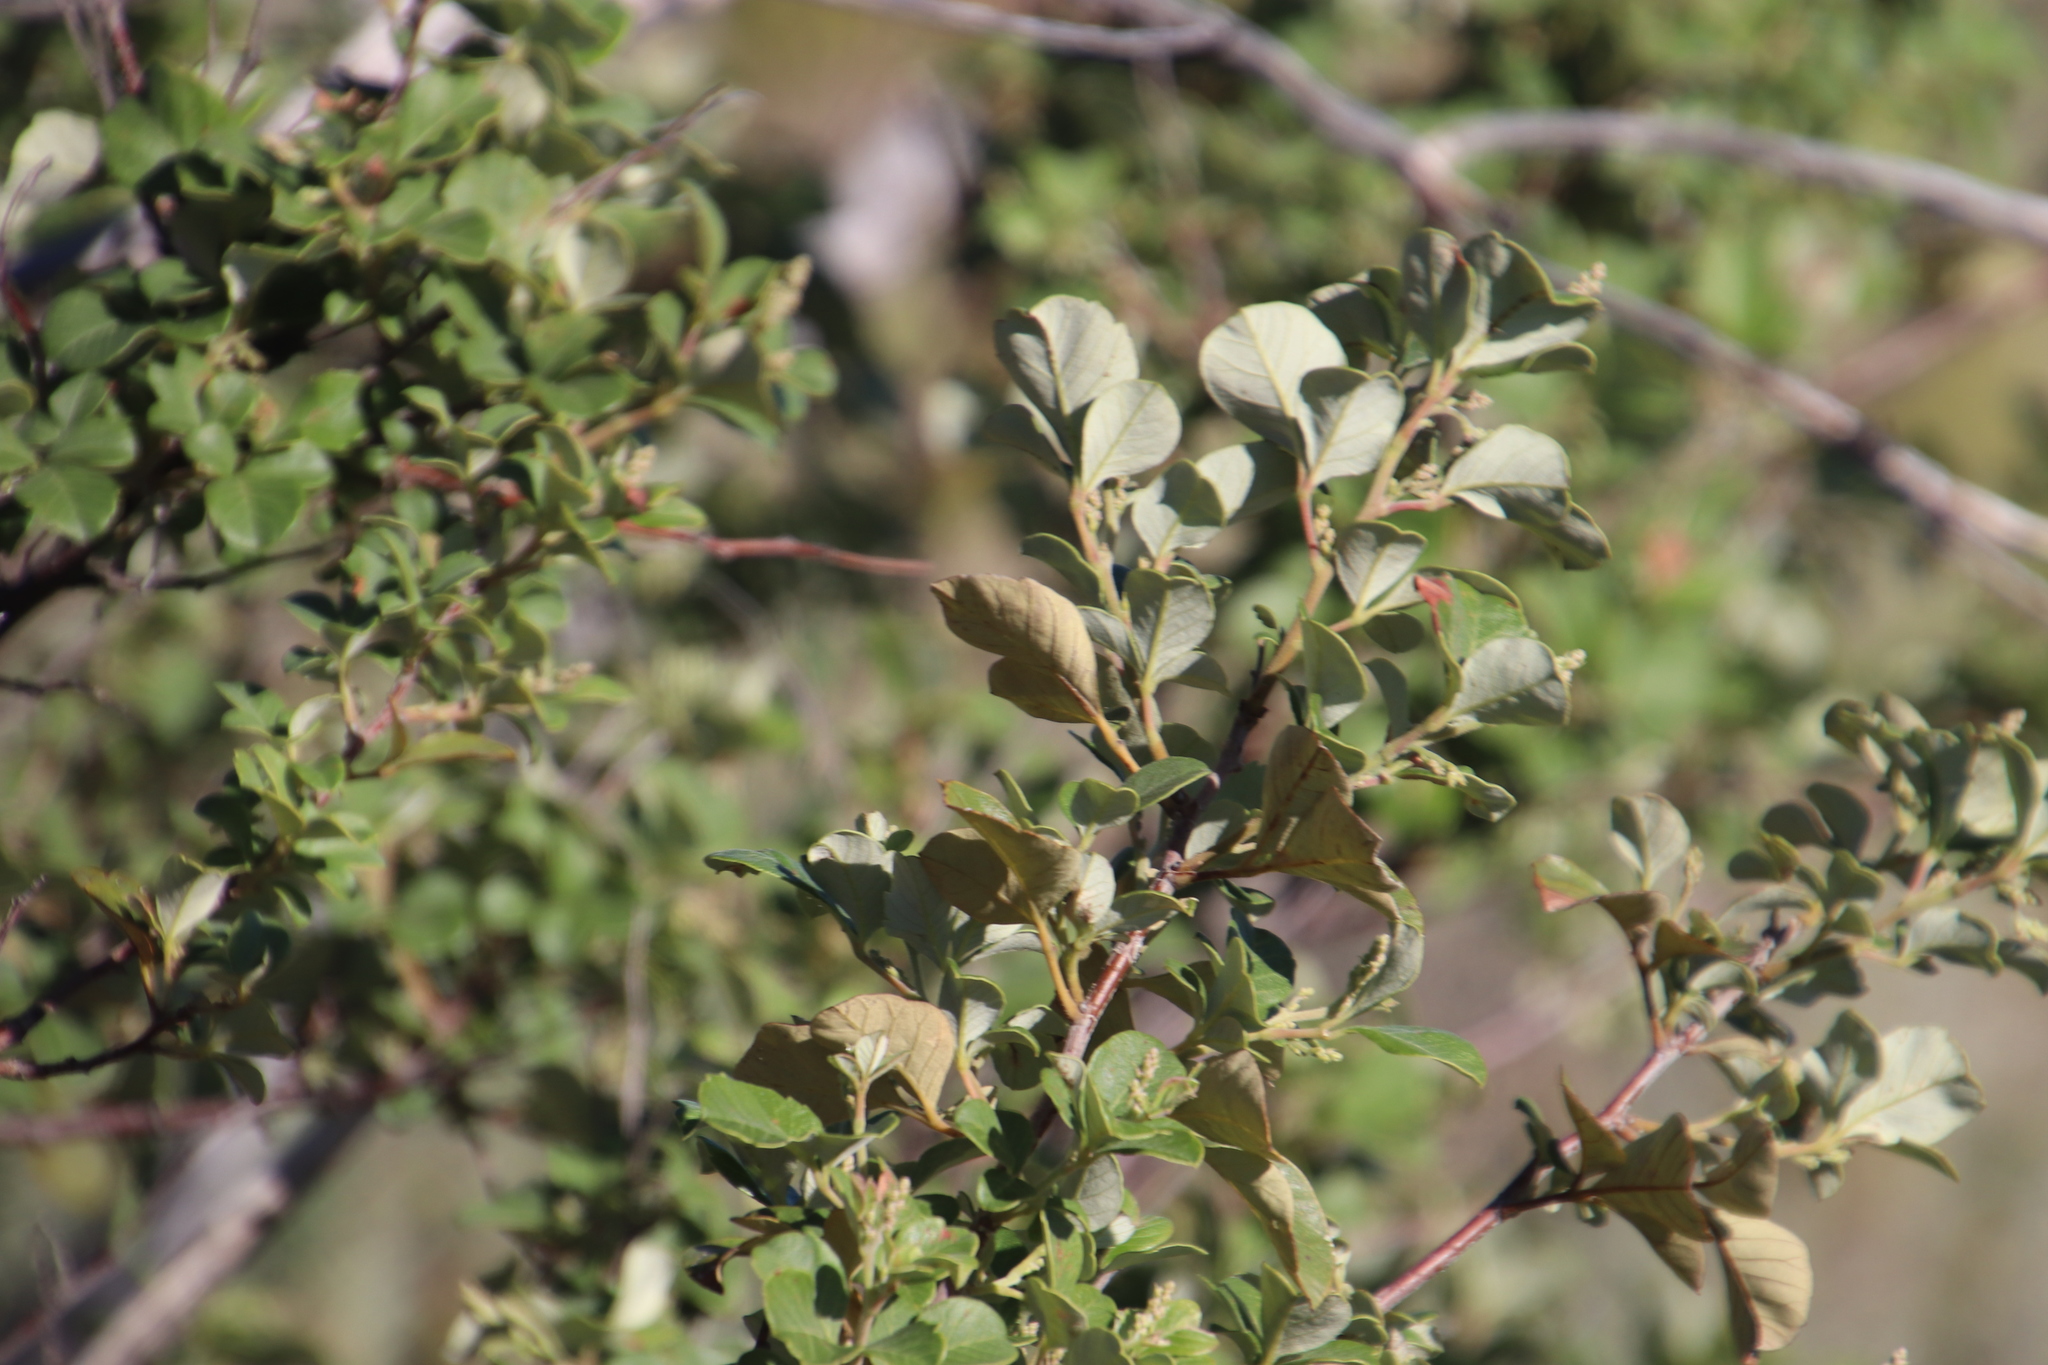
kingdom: Plantae
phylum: Tracheophyta
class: Magnoliopsida
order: Sapindales
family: Anacardiaceae
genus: Searsia
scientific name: Searsia tomentosa
